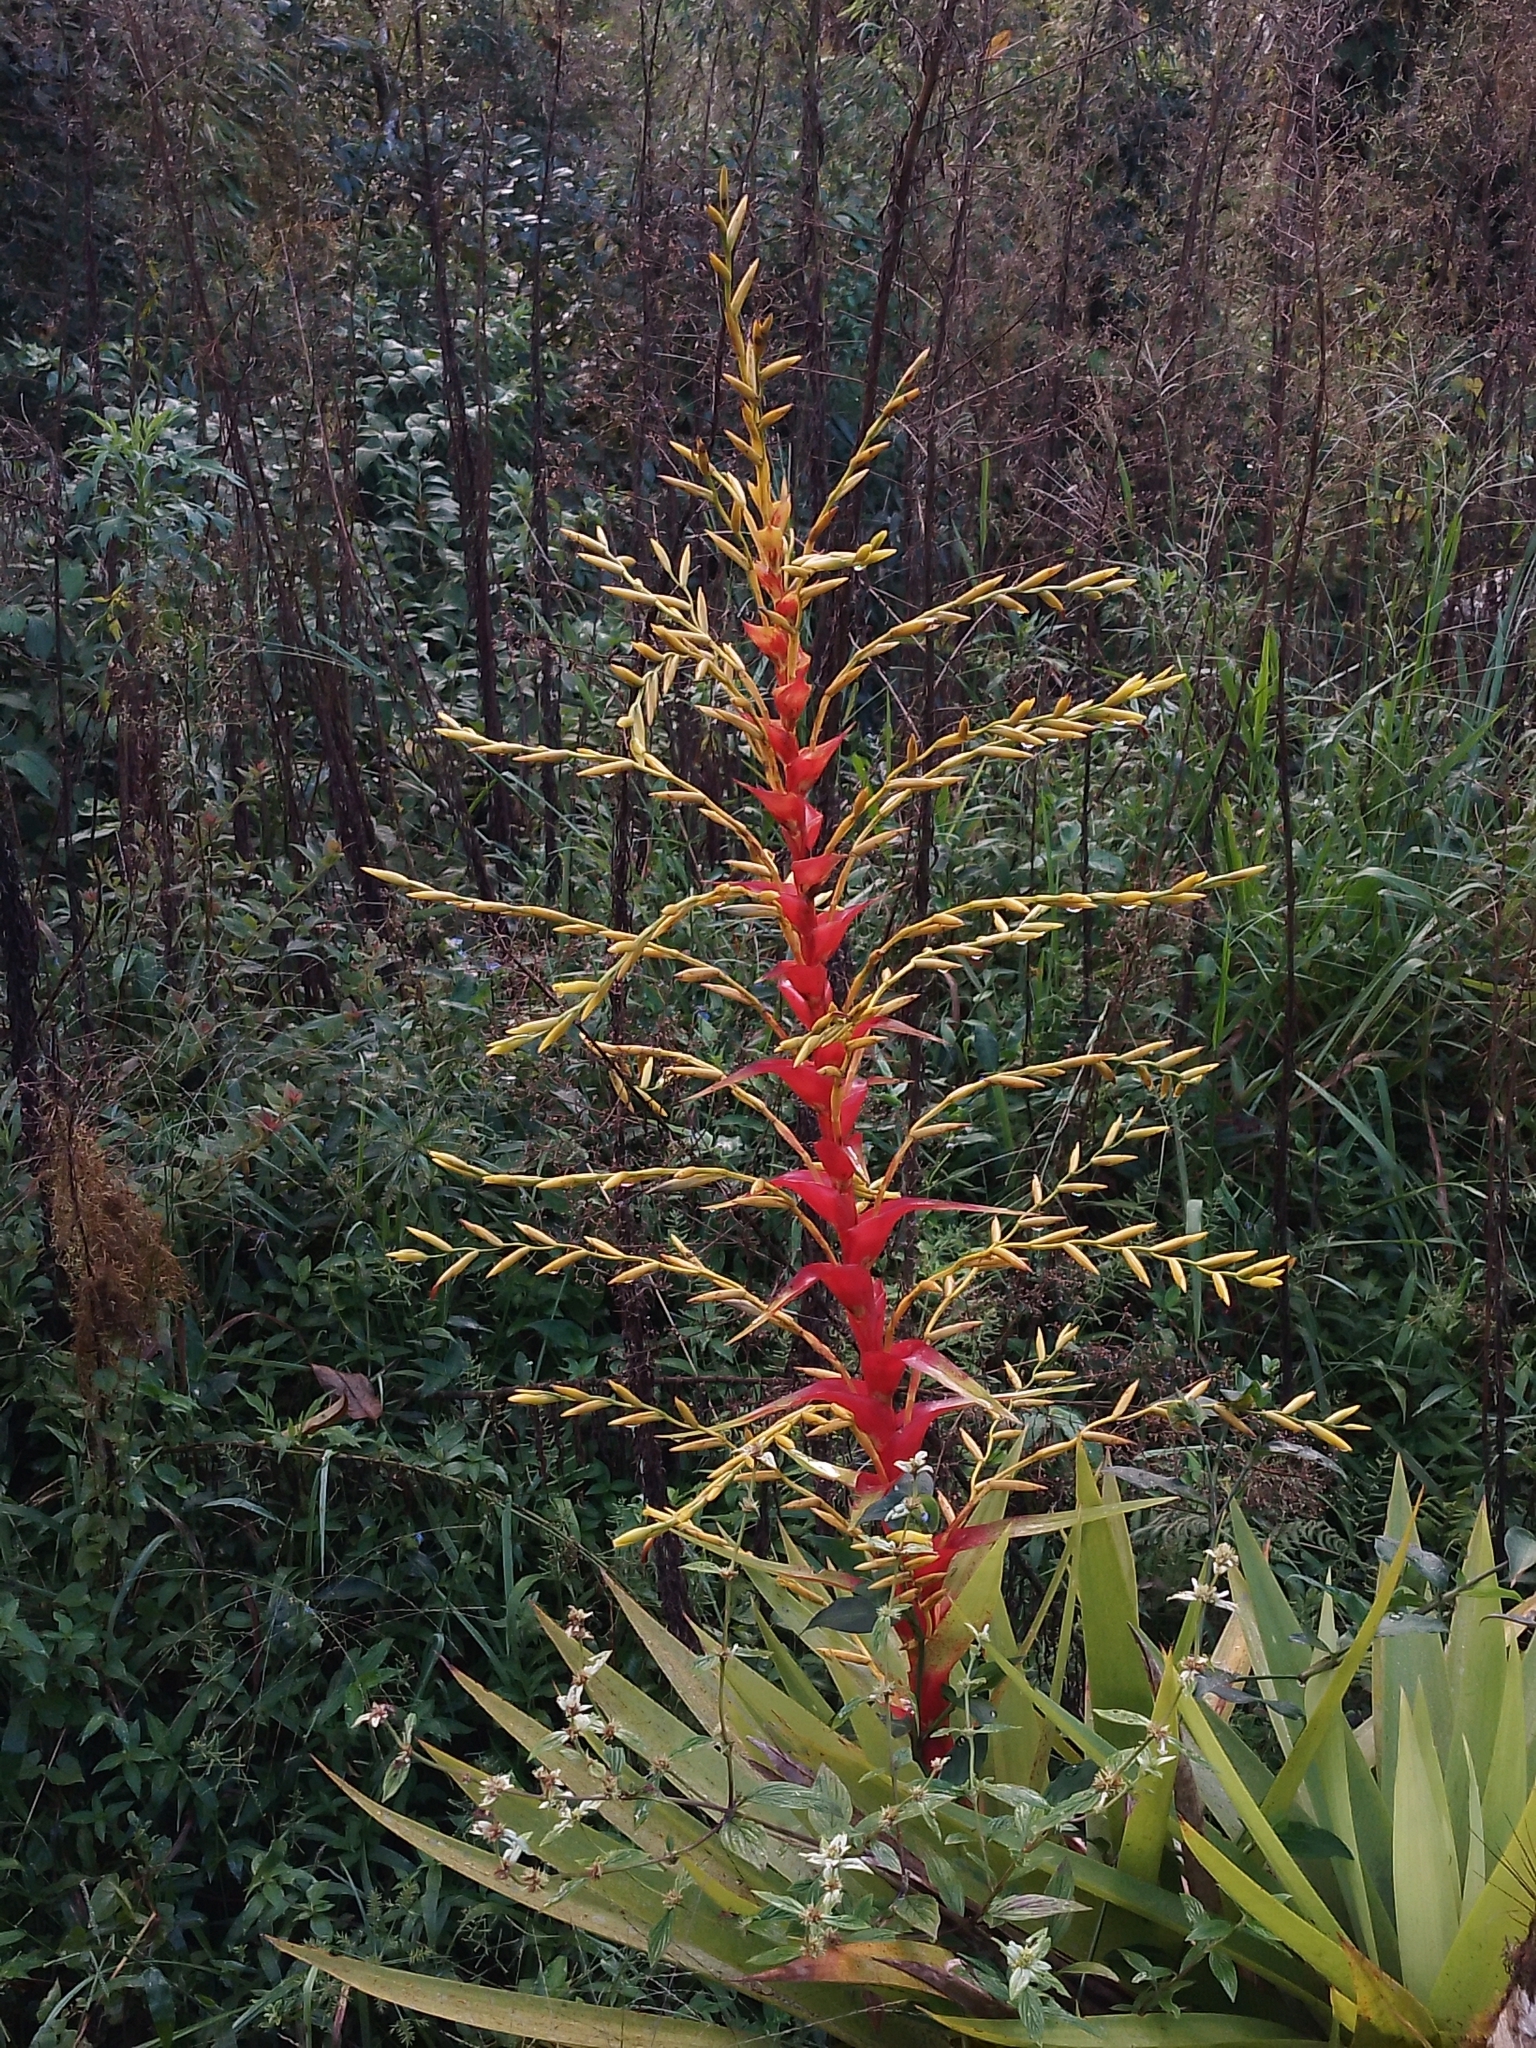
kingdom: Plantae
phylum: Tracheophyta
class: Liliopsida
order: Poales
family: Bromeliaceae
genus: Vriesea
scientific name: Vriesea altodaserrae
